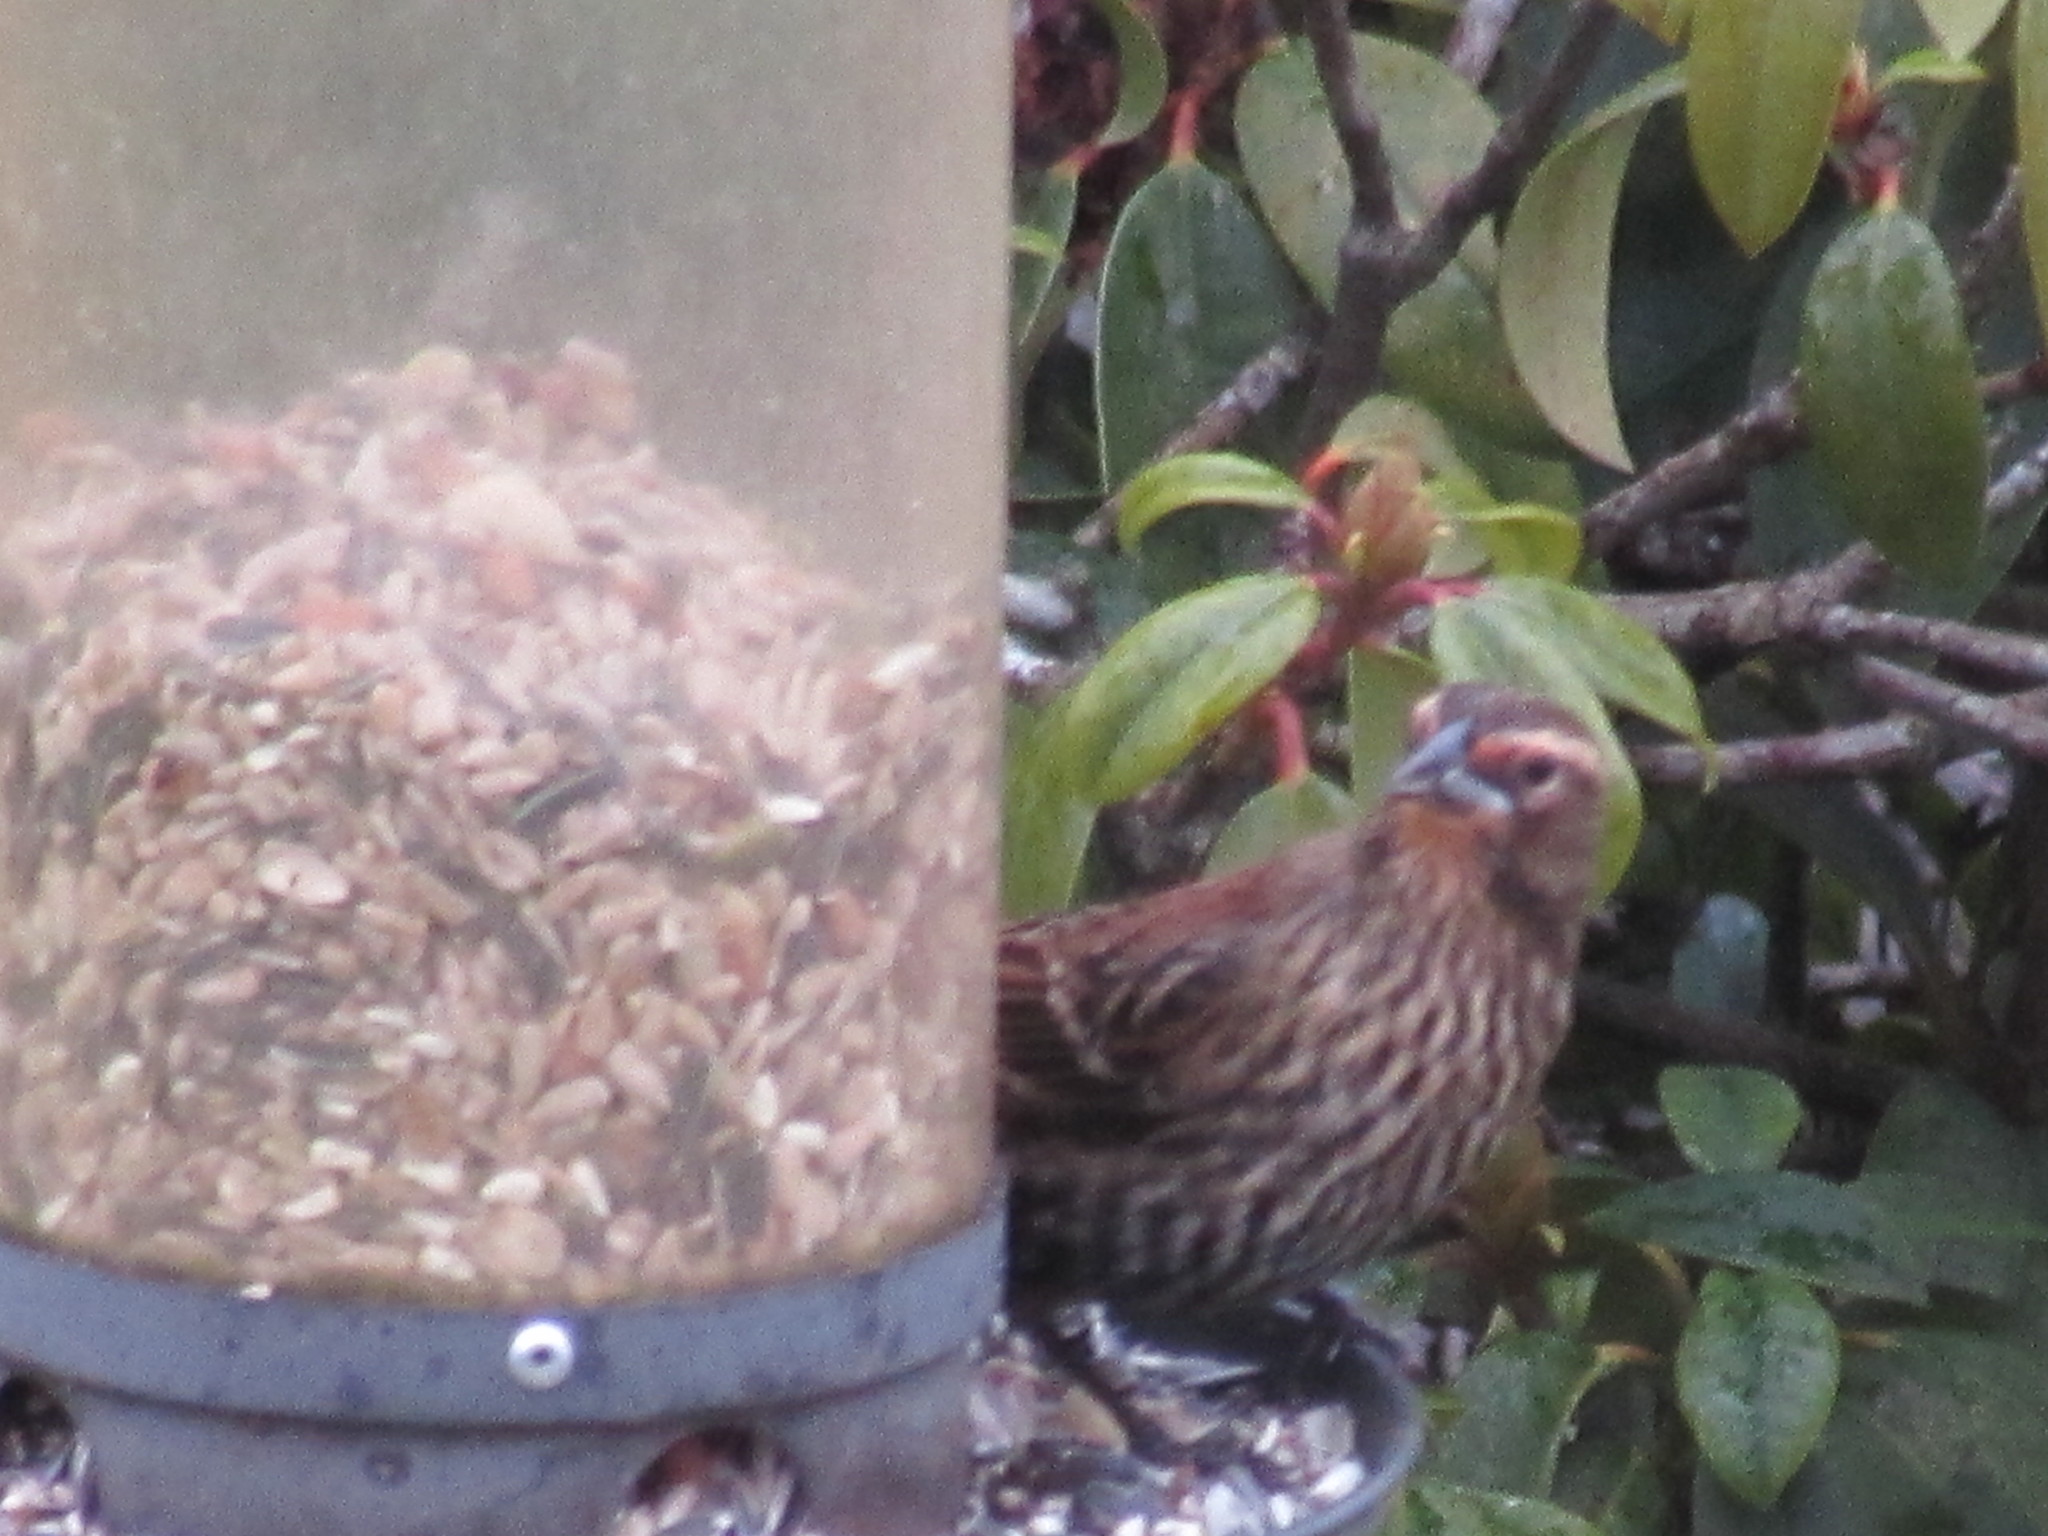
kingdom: Animalia
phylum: Chordata
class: Aves
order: Passeriformes
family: Icteridae
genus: Agelaius
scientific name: Agelaius phoeniceus
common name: Red-winged blackbird
